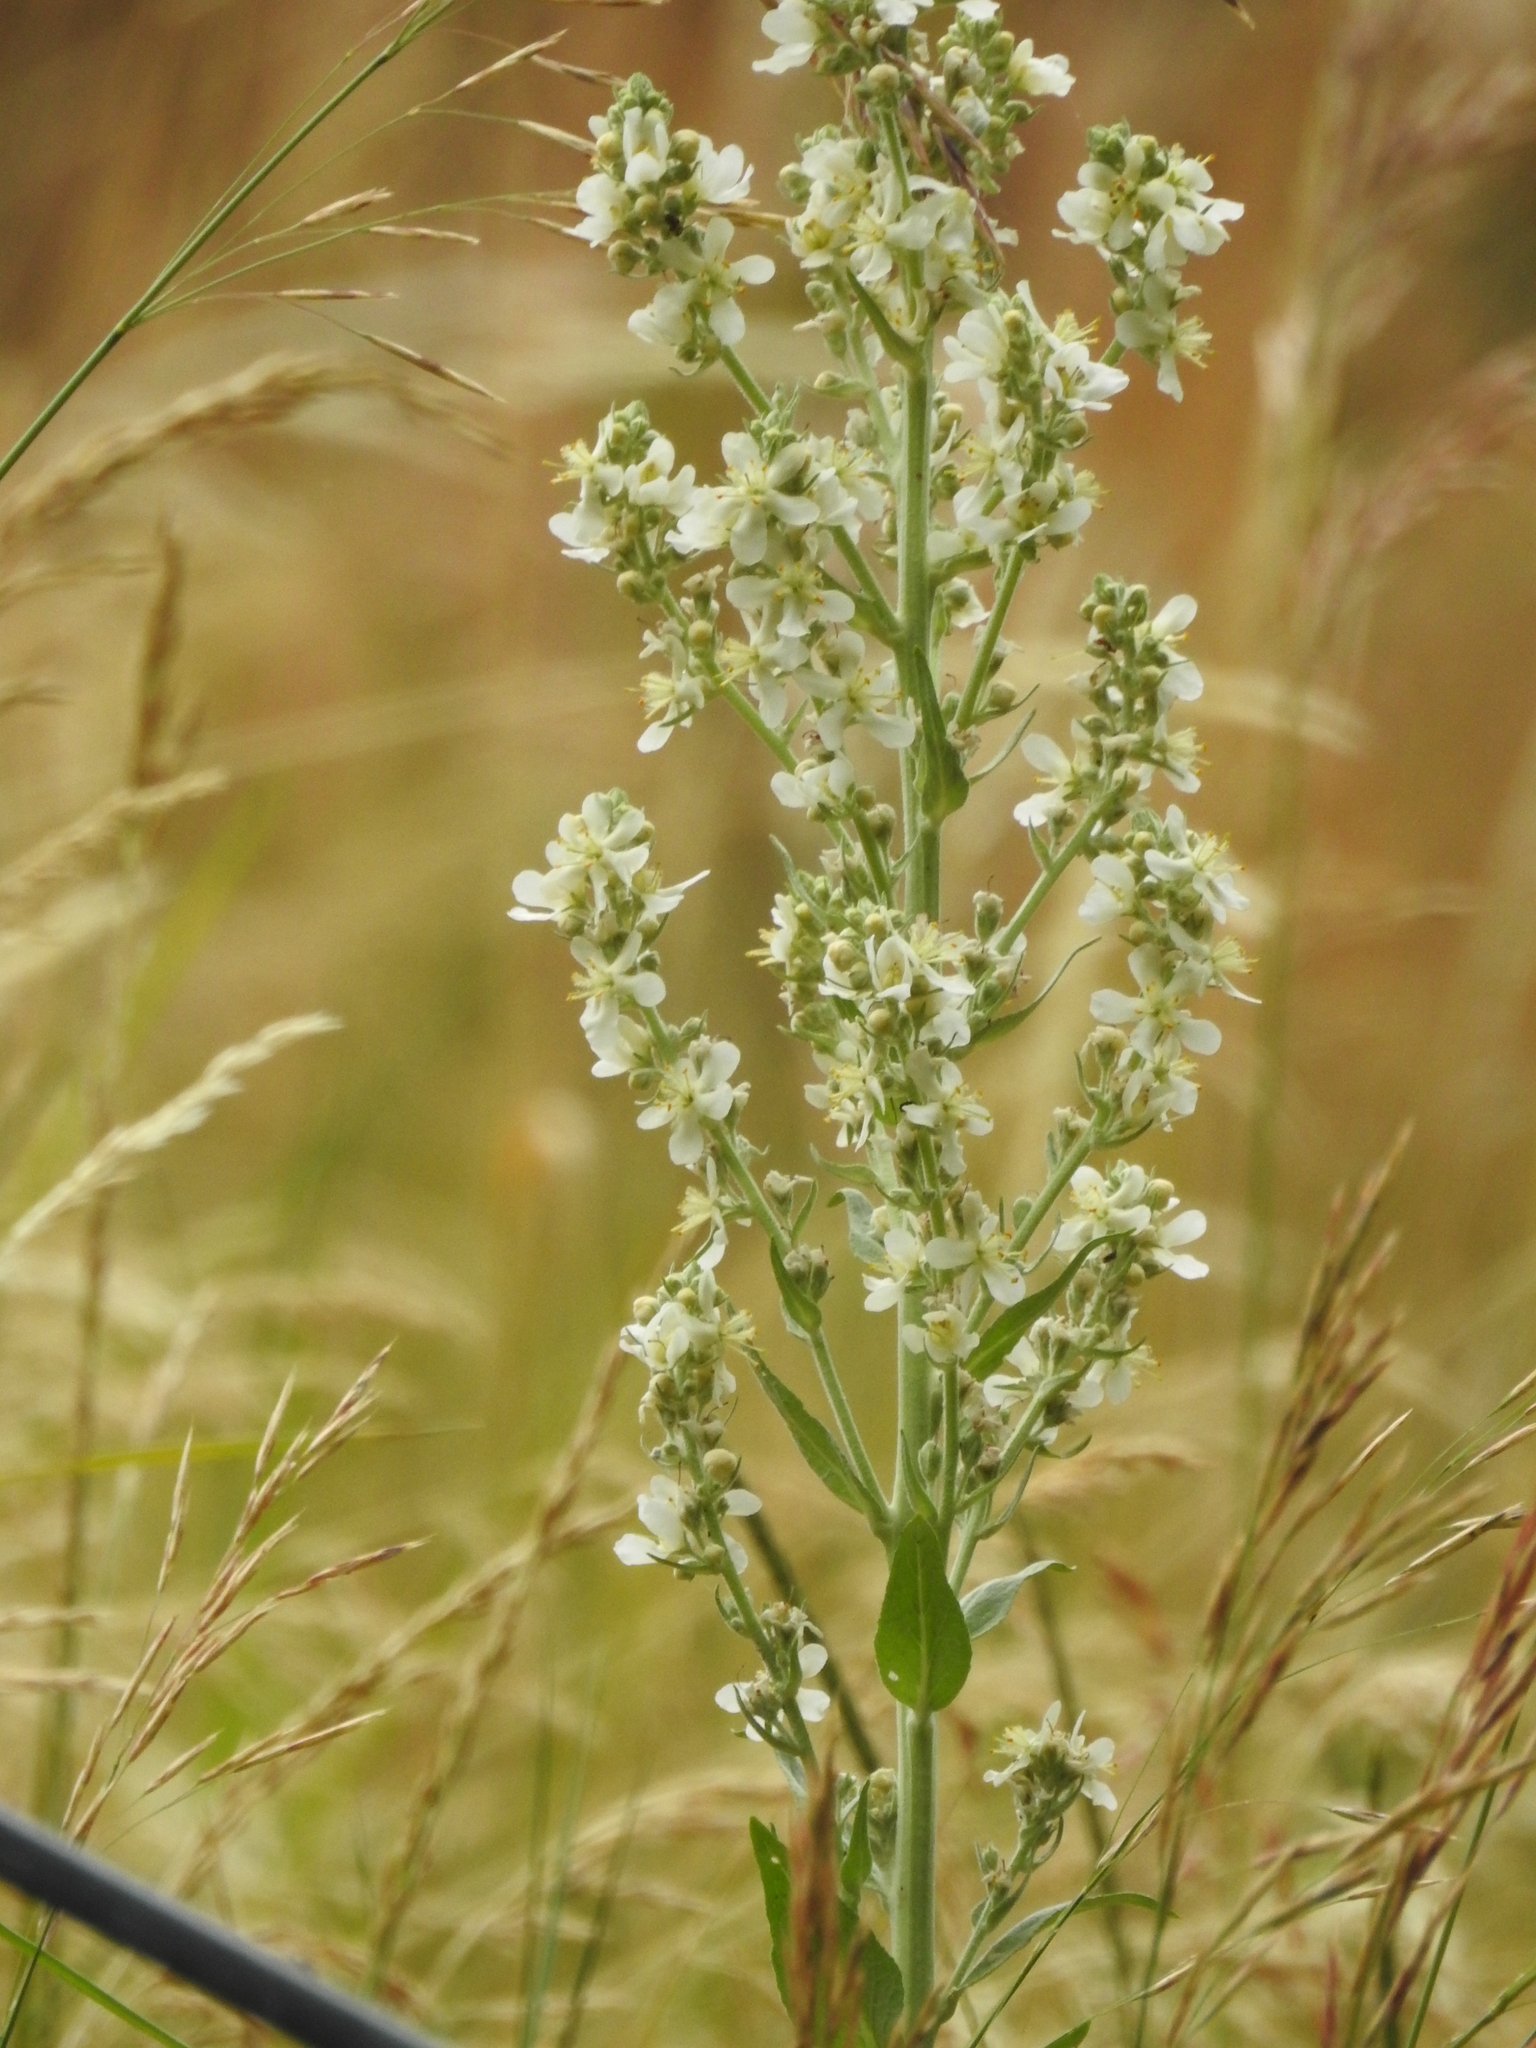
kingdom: Plantae
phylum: Tracheophyta
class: Magnoliopsida
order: Lamiales
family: Scrophulariaceae
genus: Verbascum
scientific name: Verbascum lychnitis
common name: White mullein
